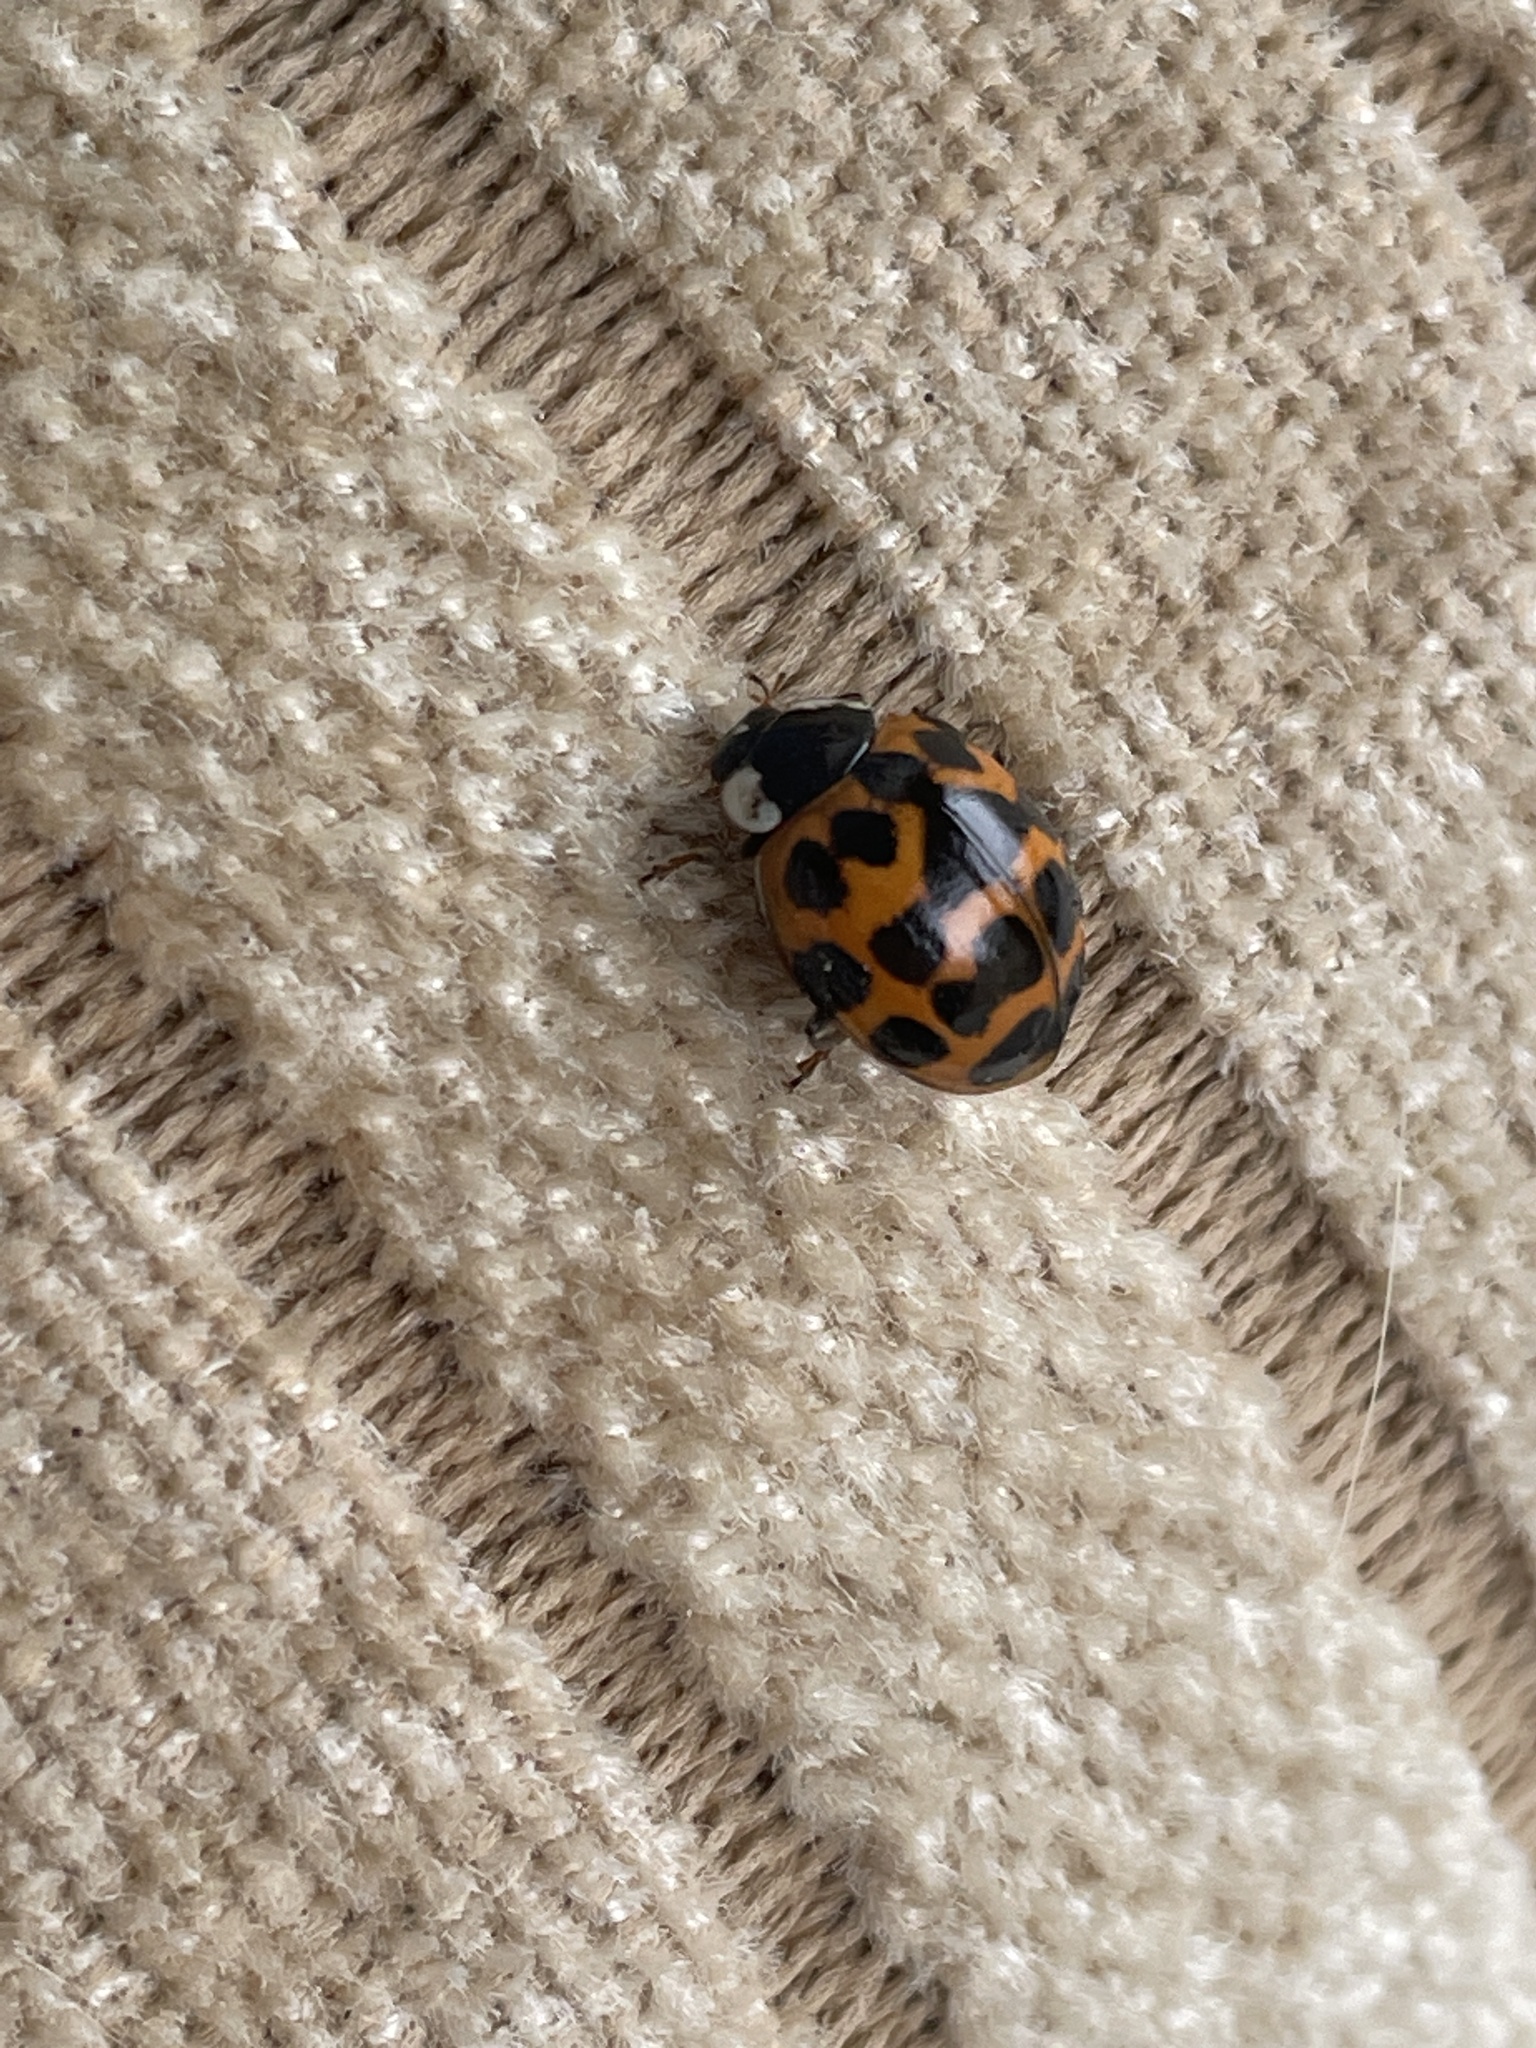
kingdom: Animalia
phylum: Arthropoda
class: Insecta
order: Coleoptera
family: Coccinellidae
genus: Harmonia
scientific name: Harmonia axyridis
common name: Harlequin ladybird
